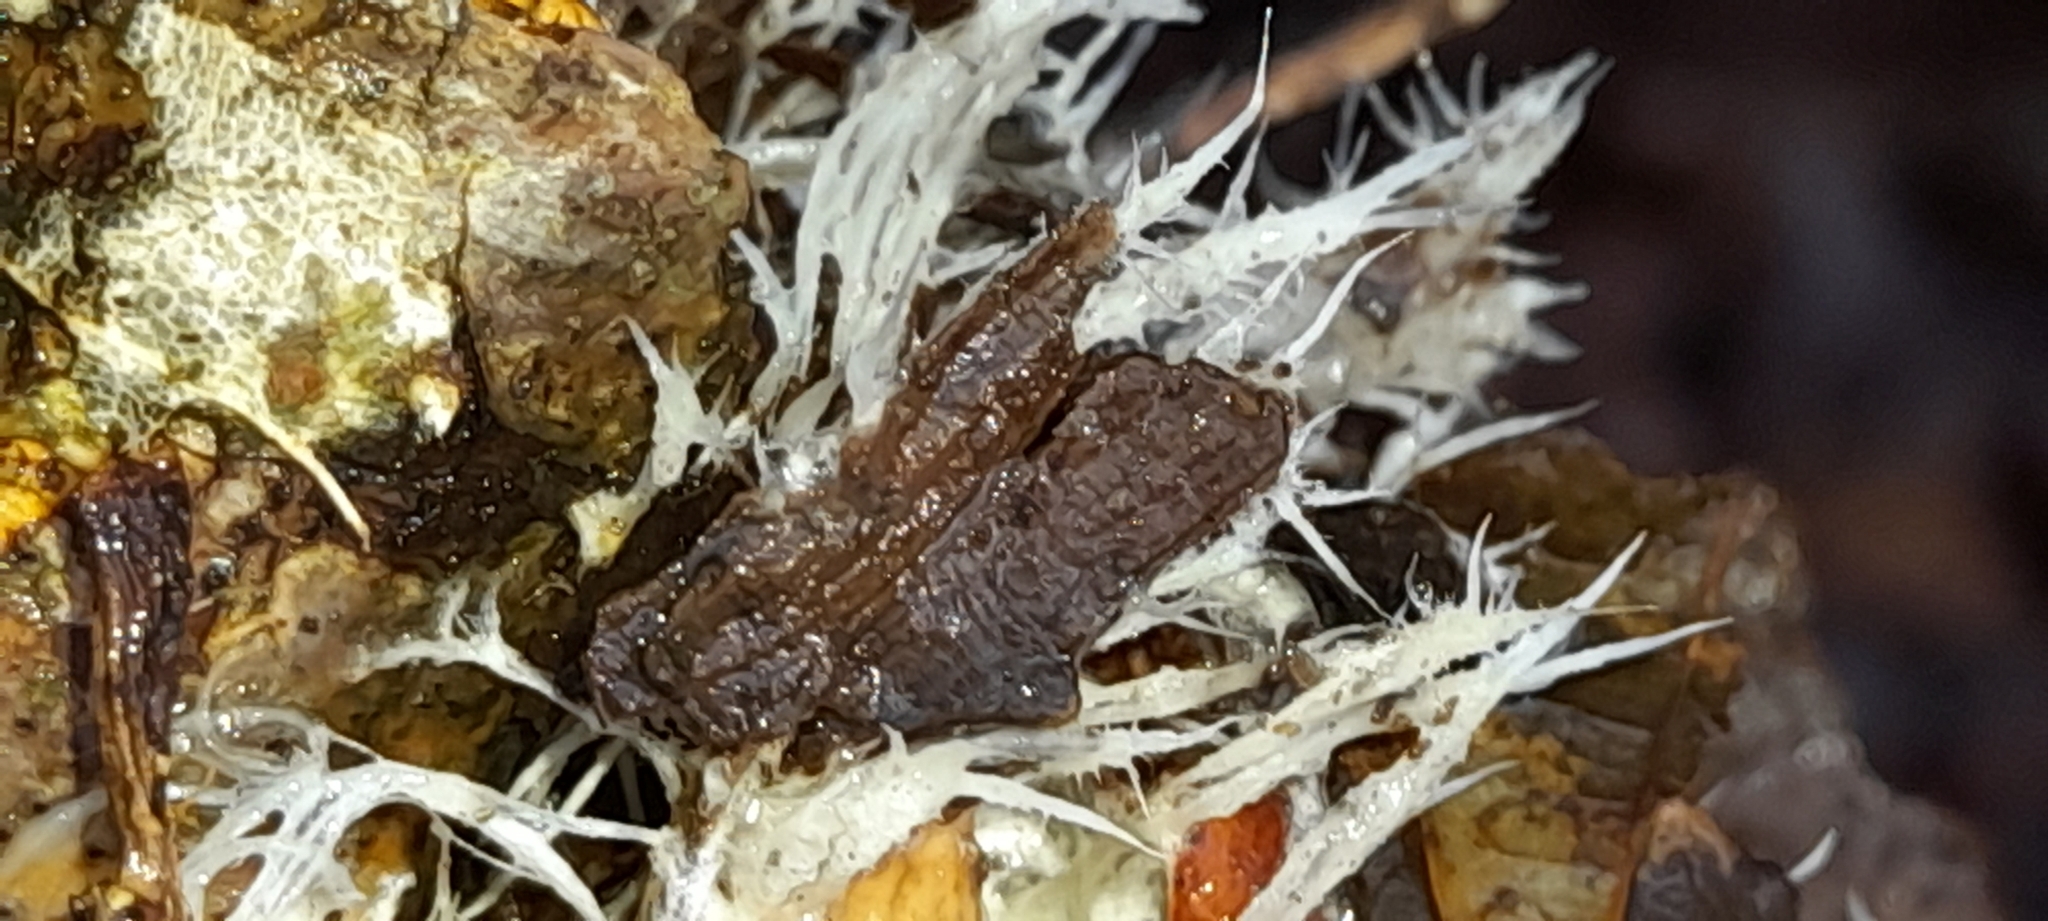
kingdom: Fungi
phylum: Basidiomycota
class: Agaricomycetes
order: Auriculariales
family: Auriculariaceae
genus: Exidiopsis
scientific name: Exidiopsis effusa
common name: Hair ice crust
